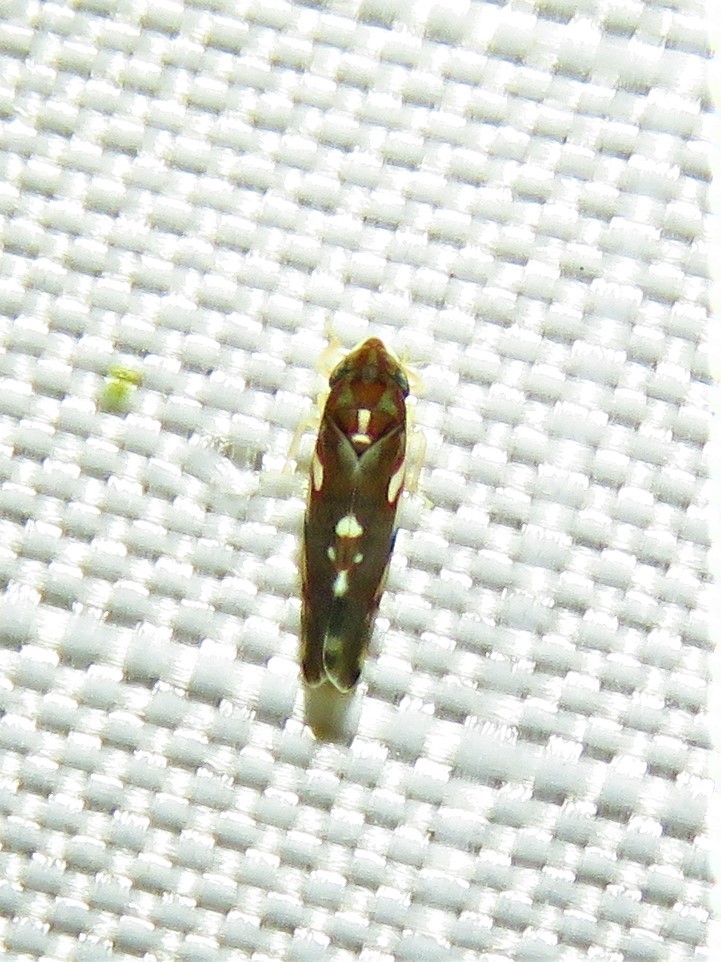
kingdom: Animalia
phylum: Arthropoda
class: Insecta
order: Hemiptera
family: Cicadellidae
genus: Erythroneura
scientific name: Erythroneura prosata
